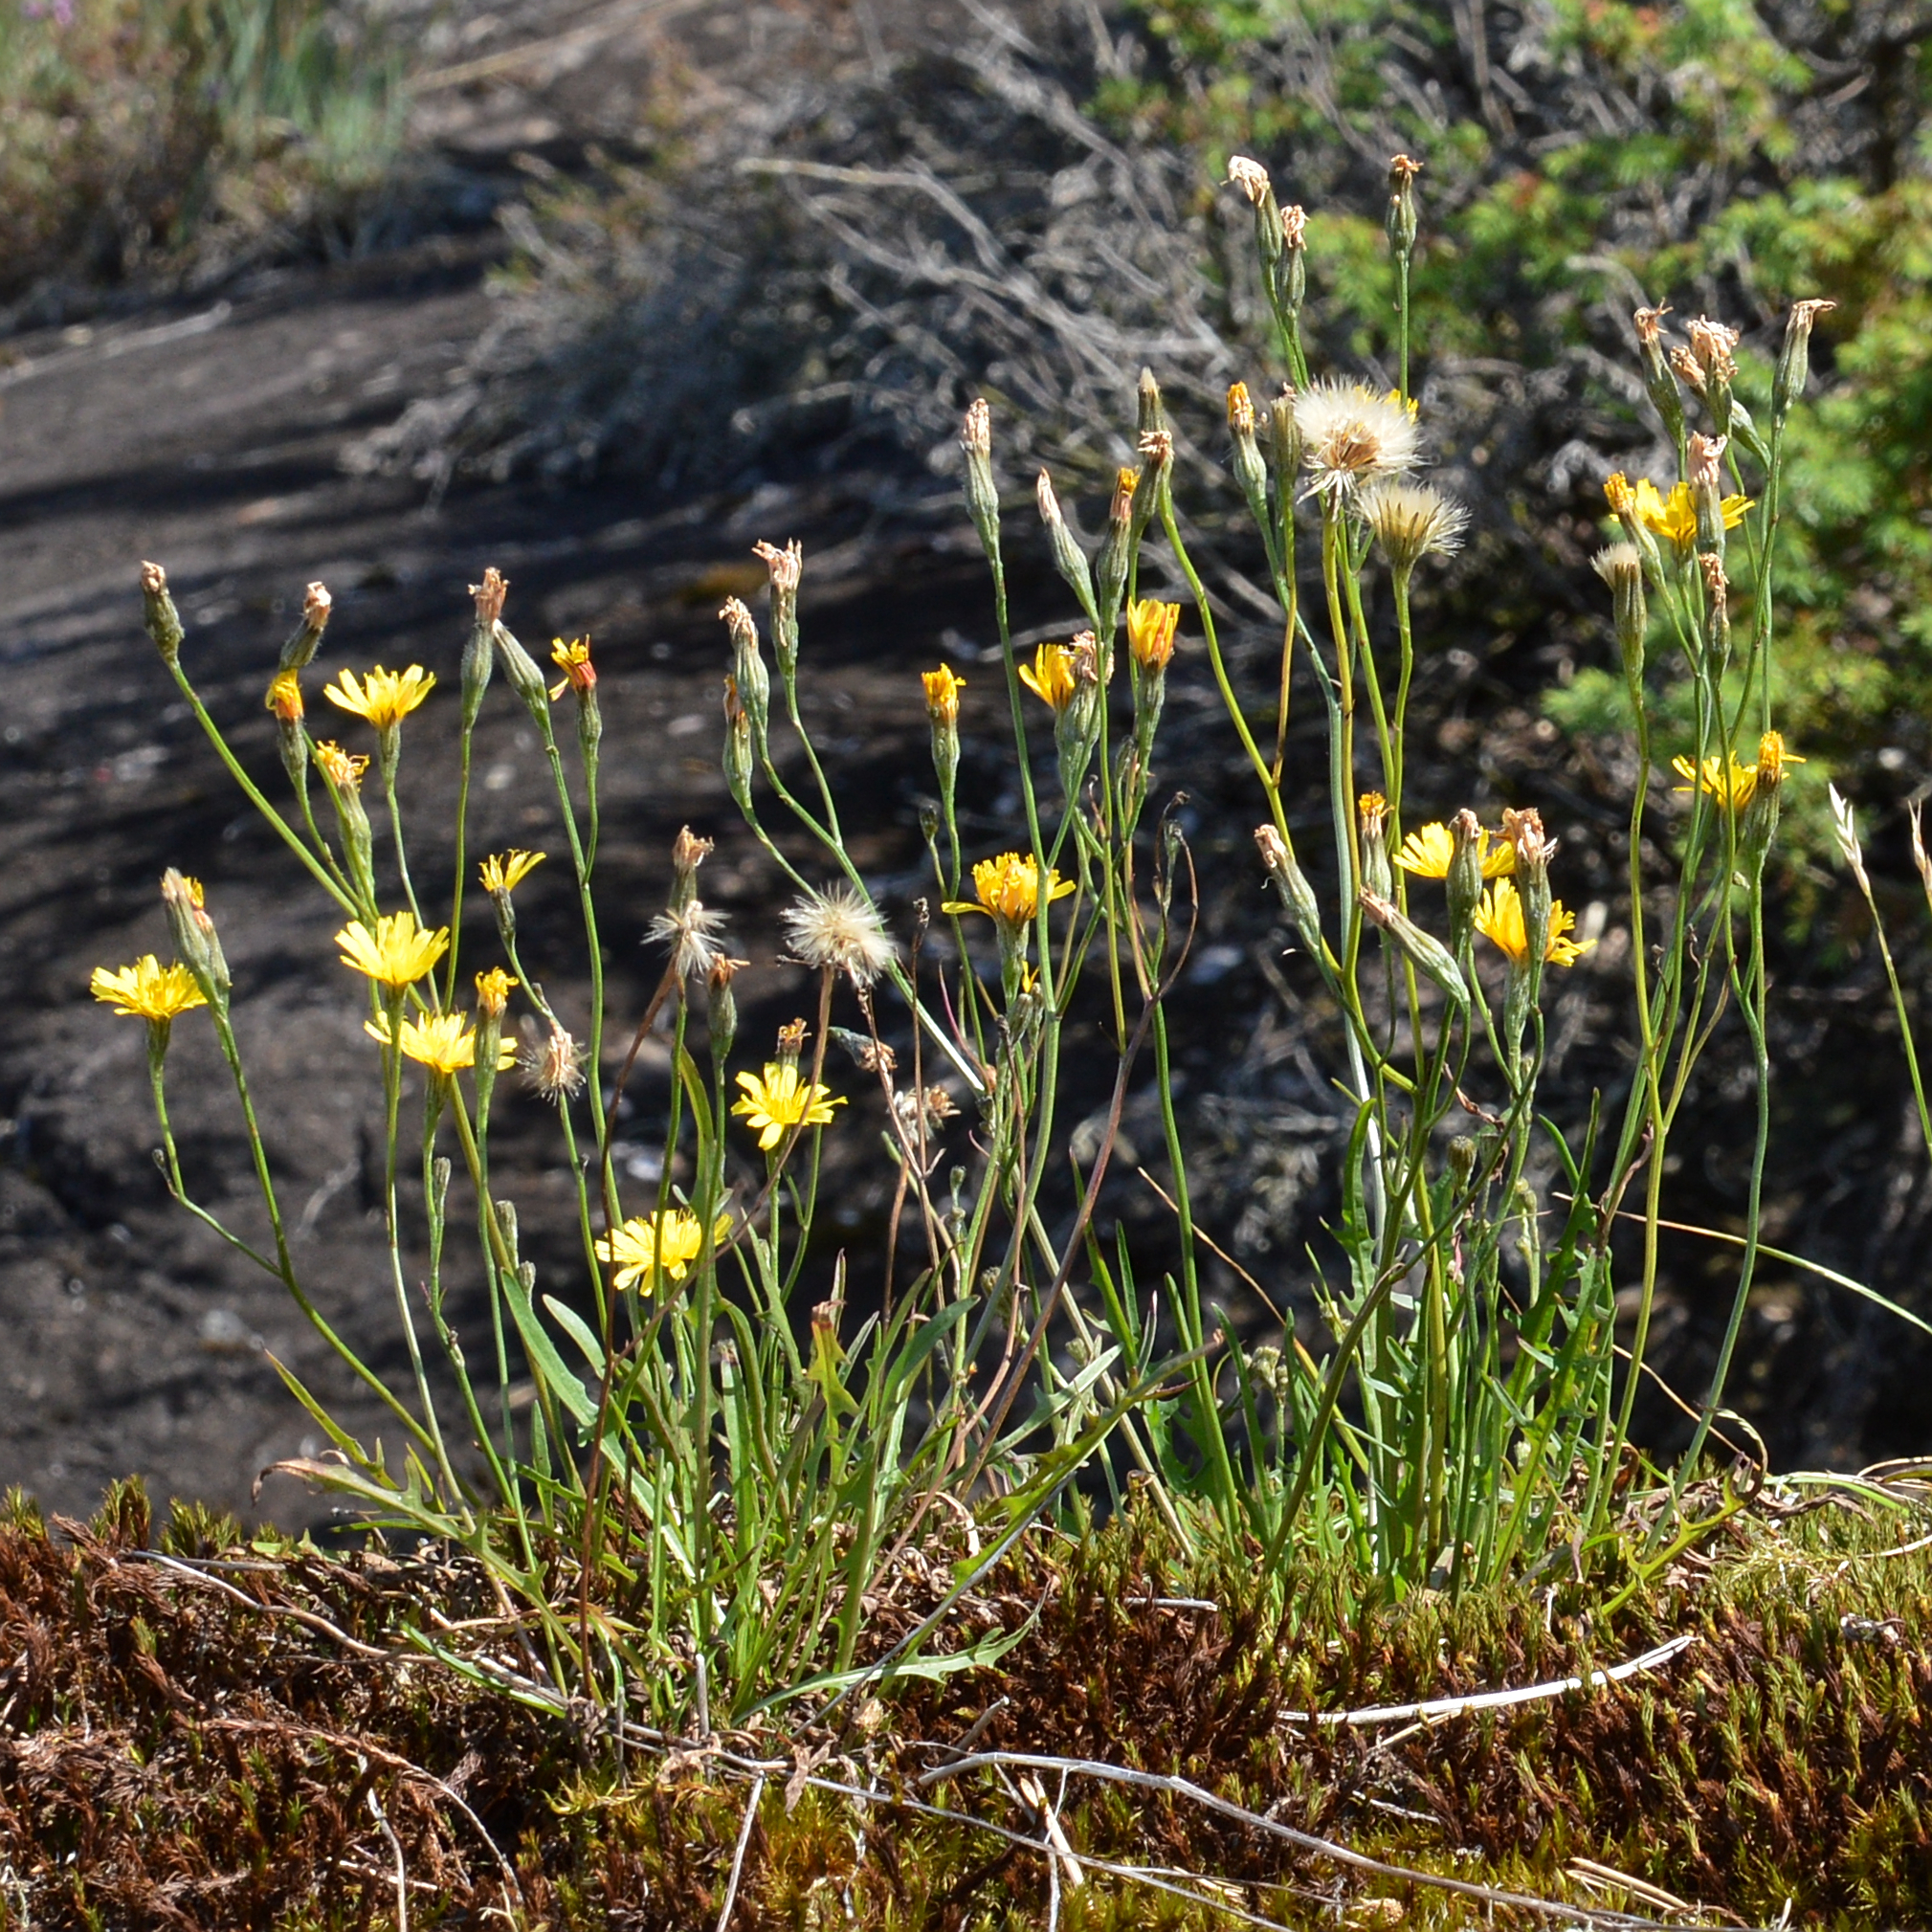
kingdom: Plantae
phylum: Tracheophyta
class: Magnoliopsida
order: Asterales
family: Asteraceae
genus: Scorzoneroides
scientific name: Scorzoneroides autumnalis
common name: Autumn hawkbit
